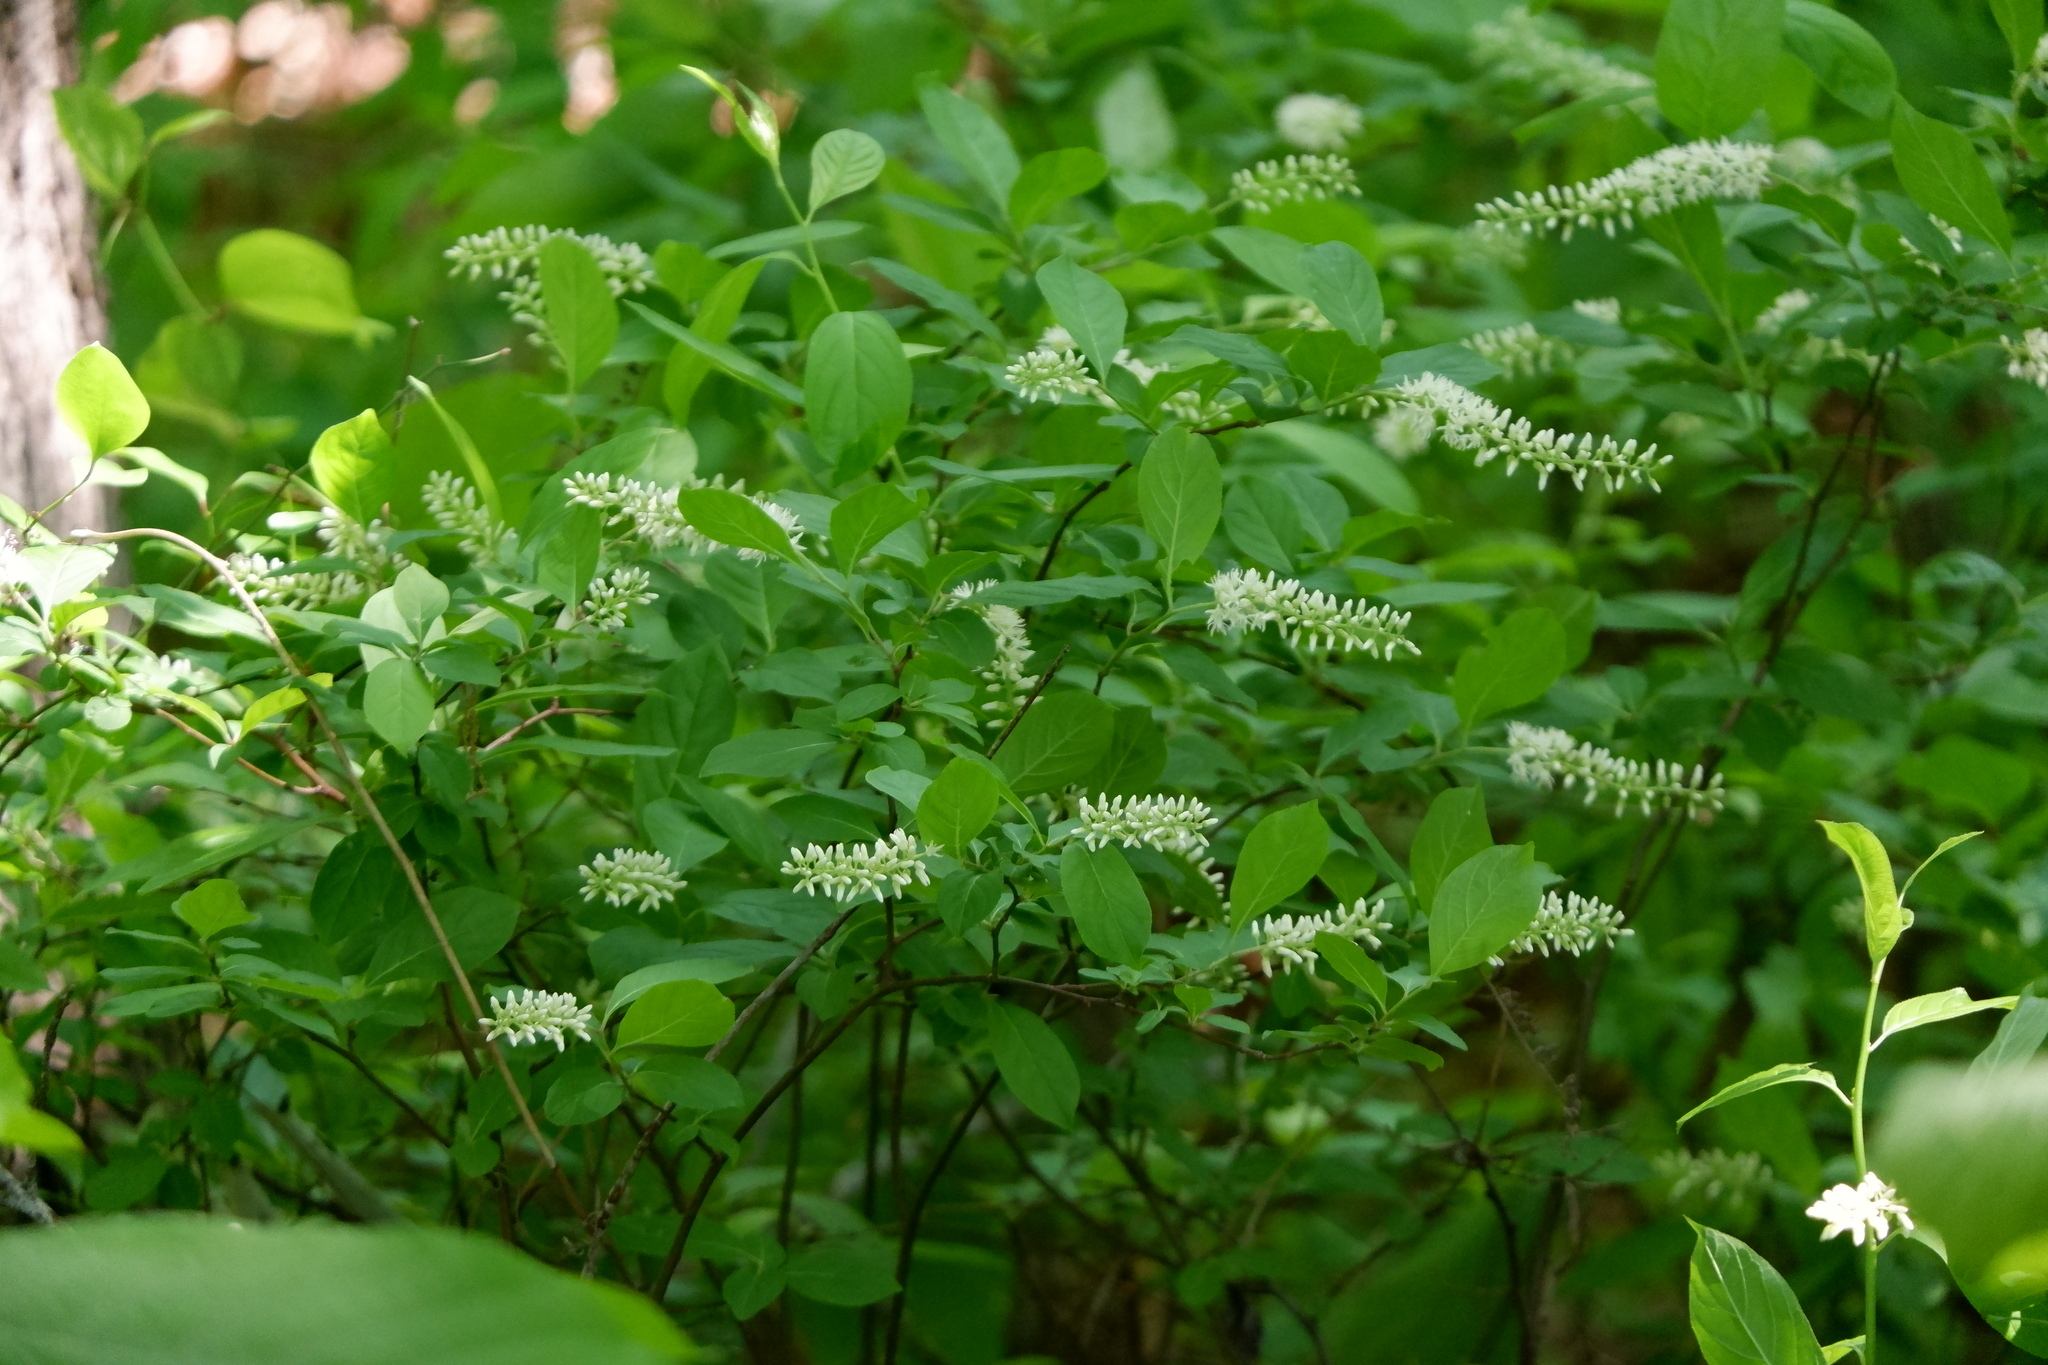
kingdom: Plantae
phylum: Tracheophyta
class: Magnoliopsida
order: Saxifragales
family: Iteaceae
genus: Itea
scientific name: Itea virginica
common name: Sweetspire
